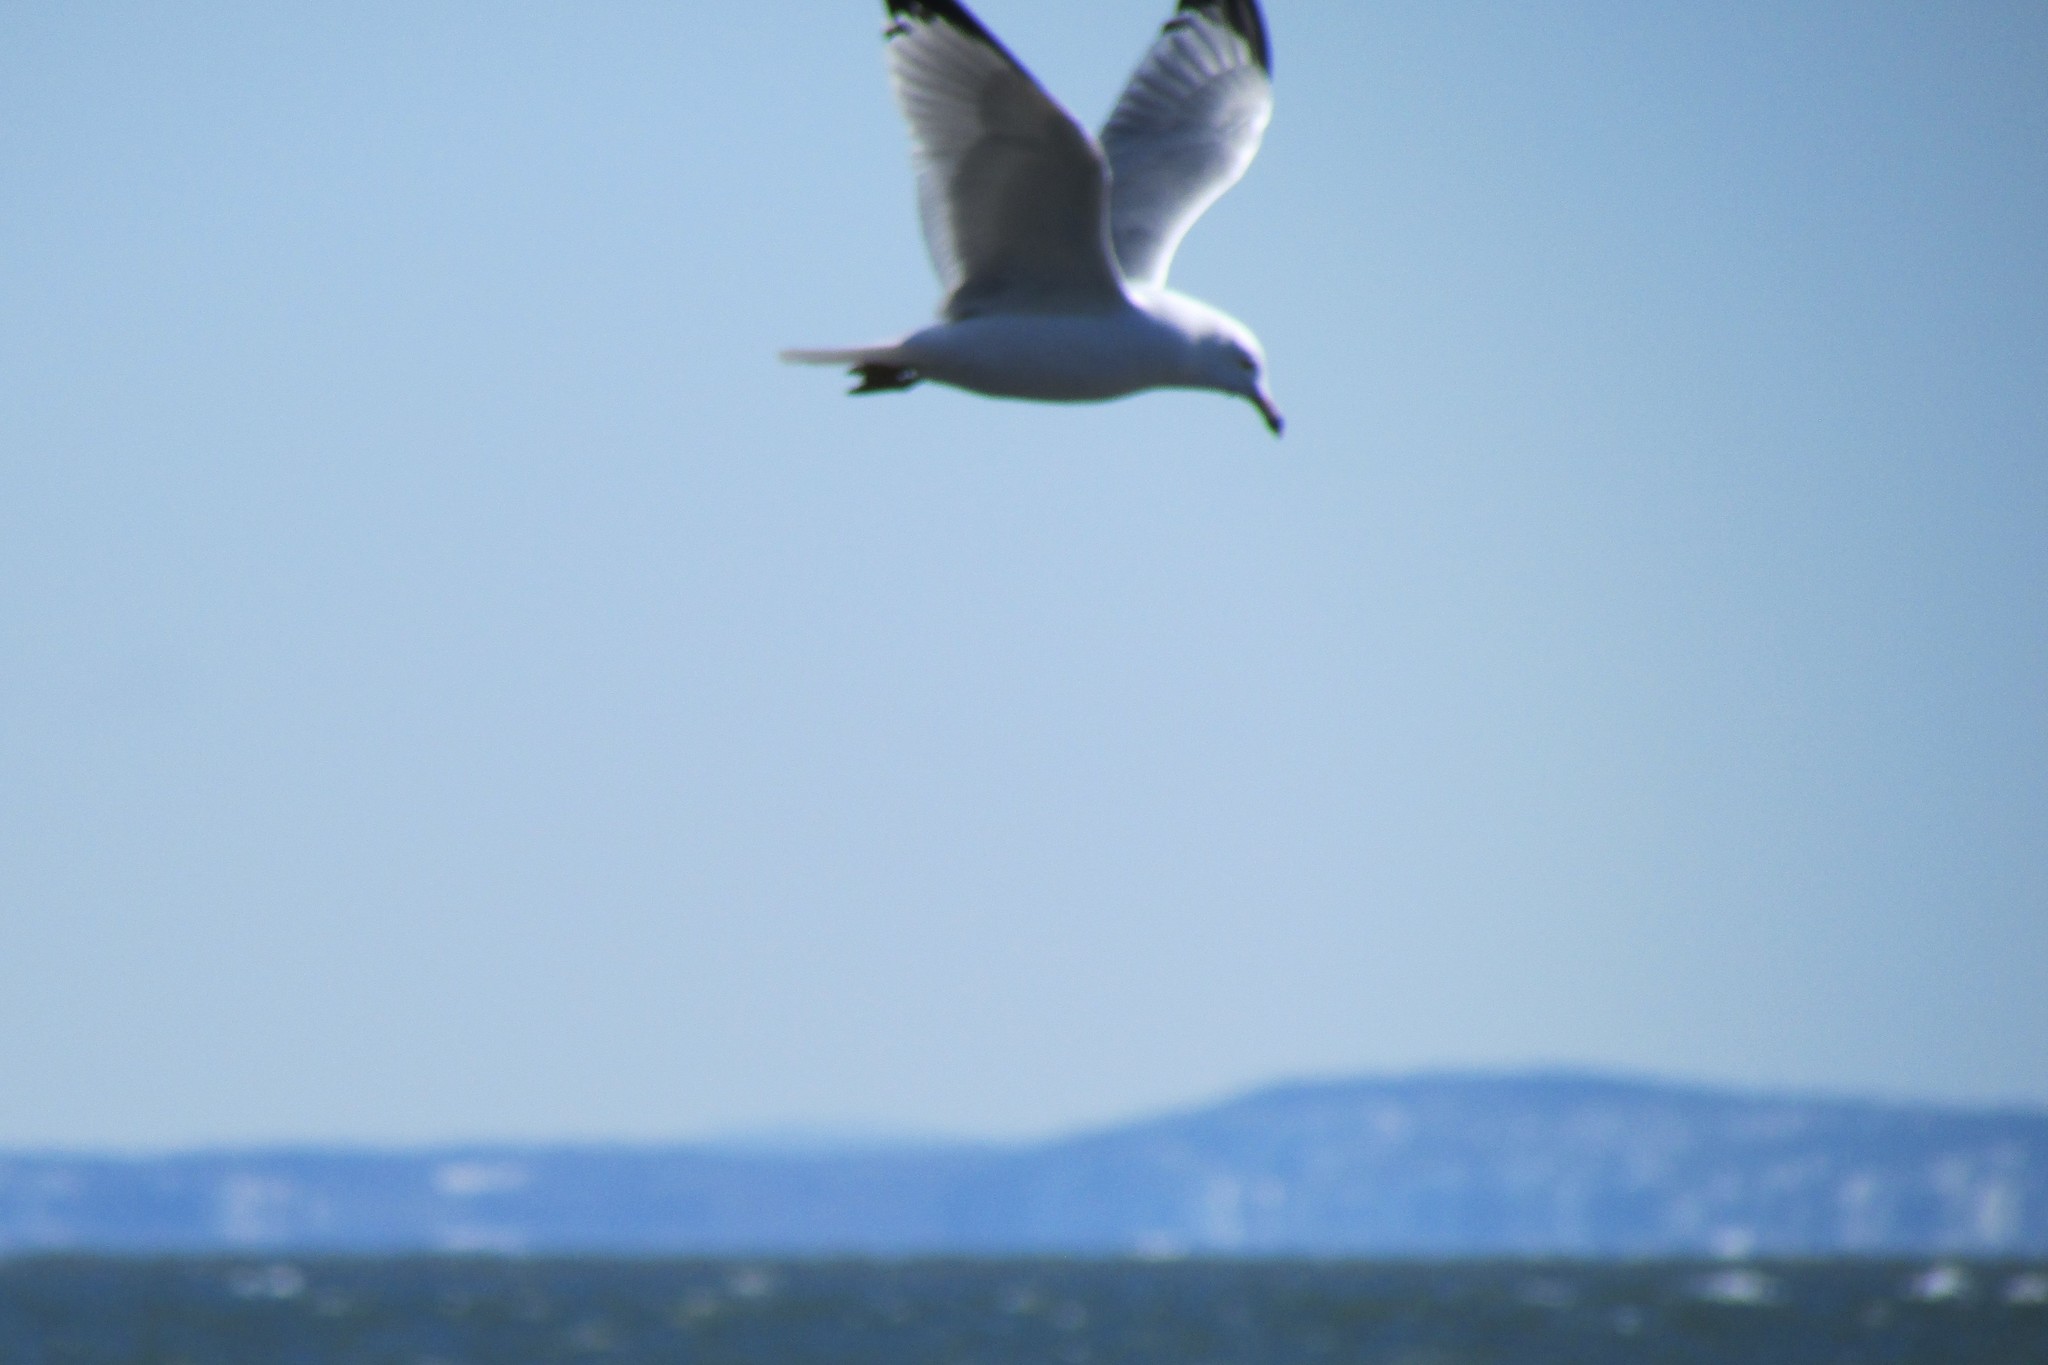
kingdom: Animalia
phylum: Chordata
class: Aves
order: Charadriiformes
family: Laridae
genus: Larus
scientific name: Larus delawarensis
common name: Ring-billed gull
